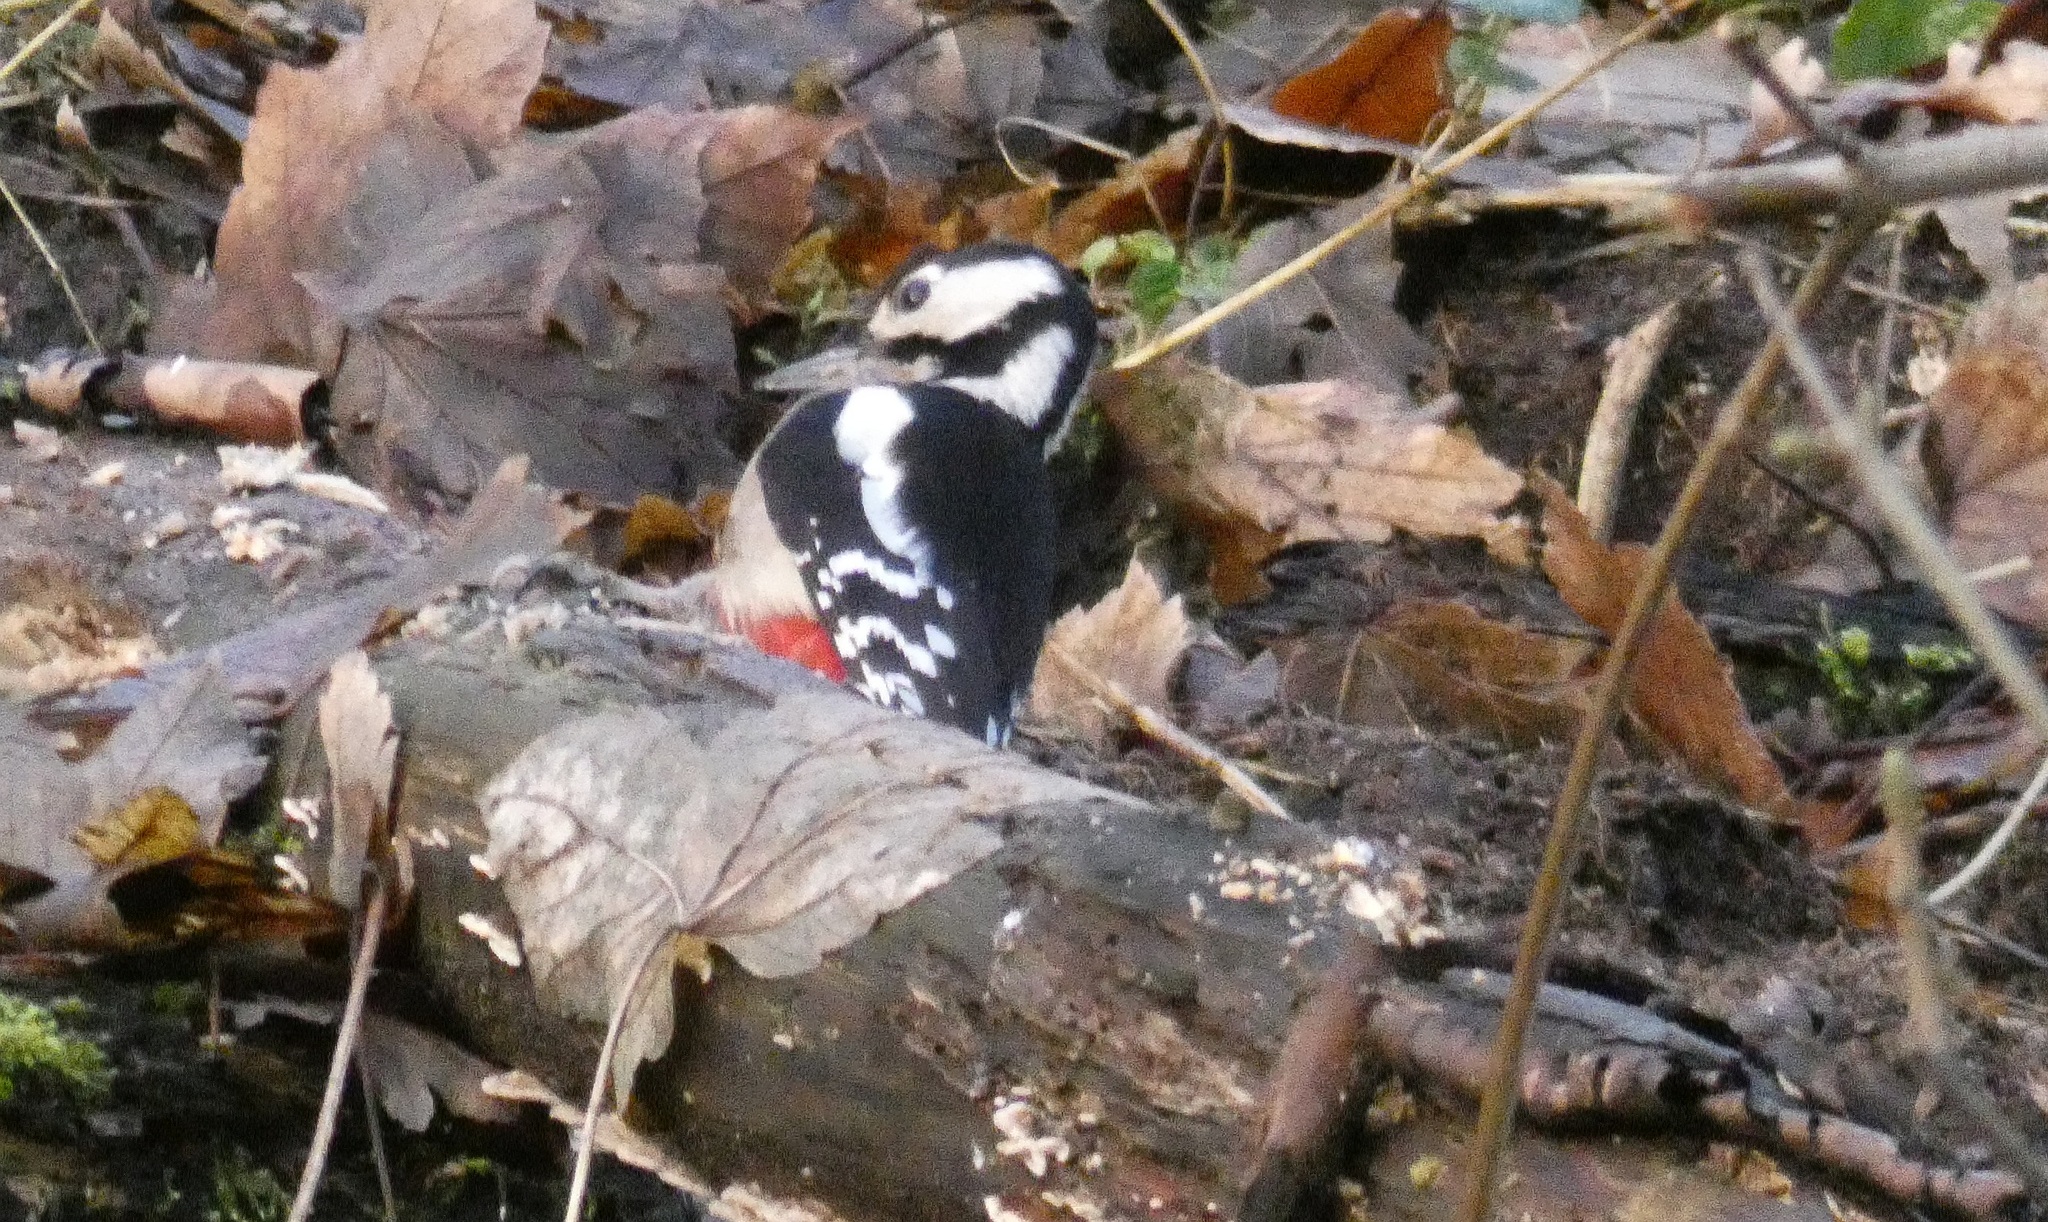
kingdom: Animalia
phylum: Chordata
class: Aves
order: Piciformes
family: Picidae
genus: Dendrocopos
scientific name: Dendrocopos major
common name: Great spotted woodpecker
